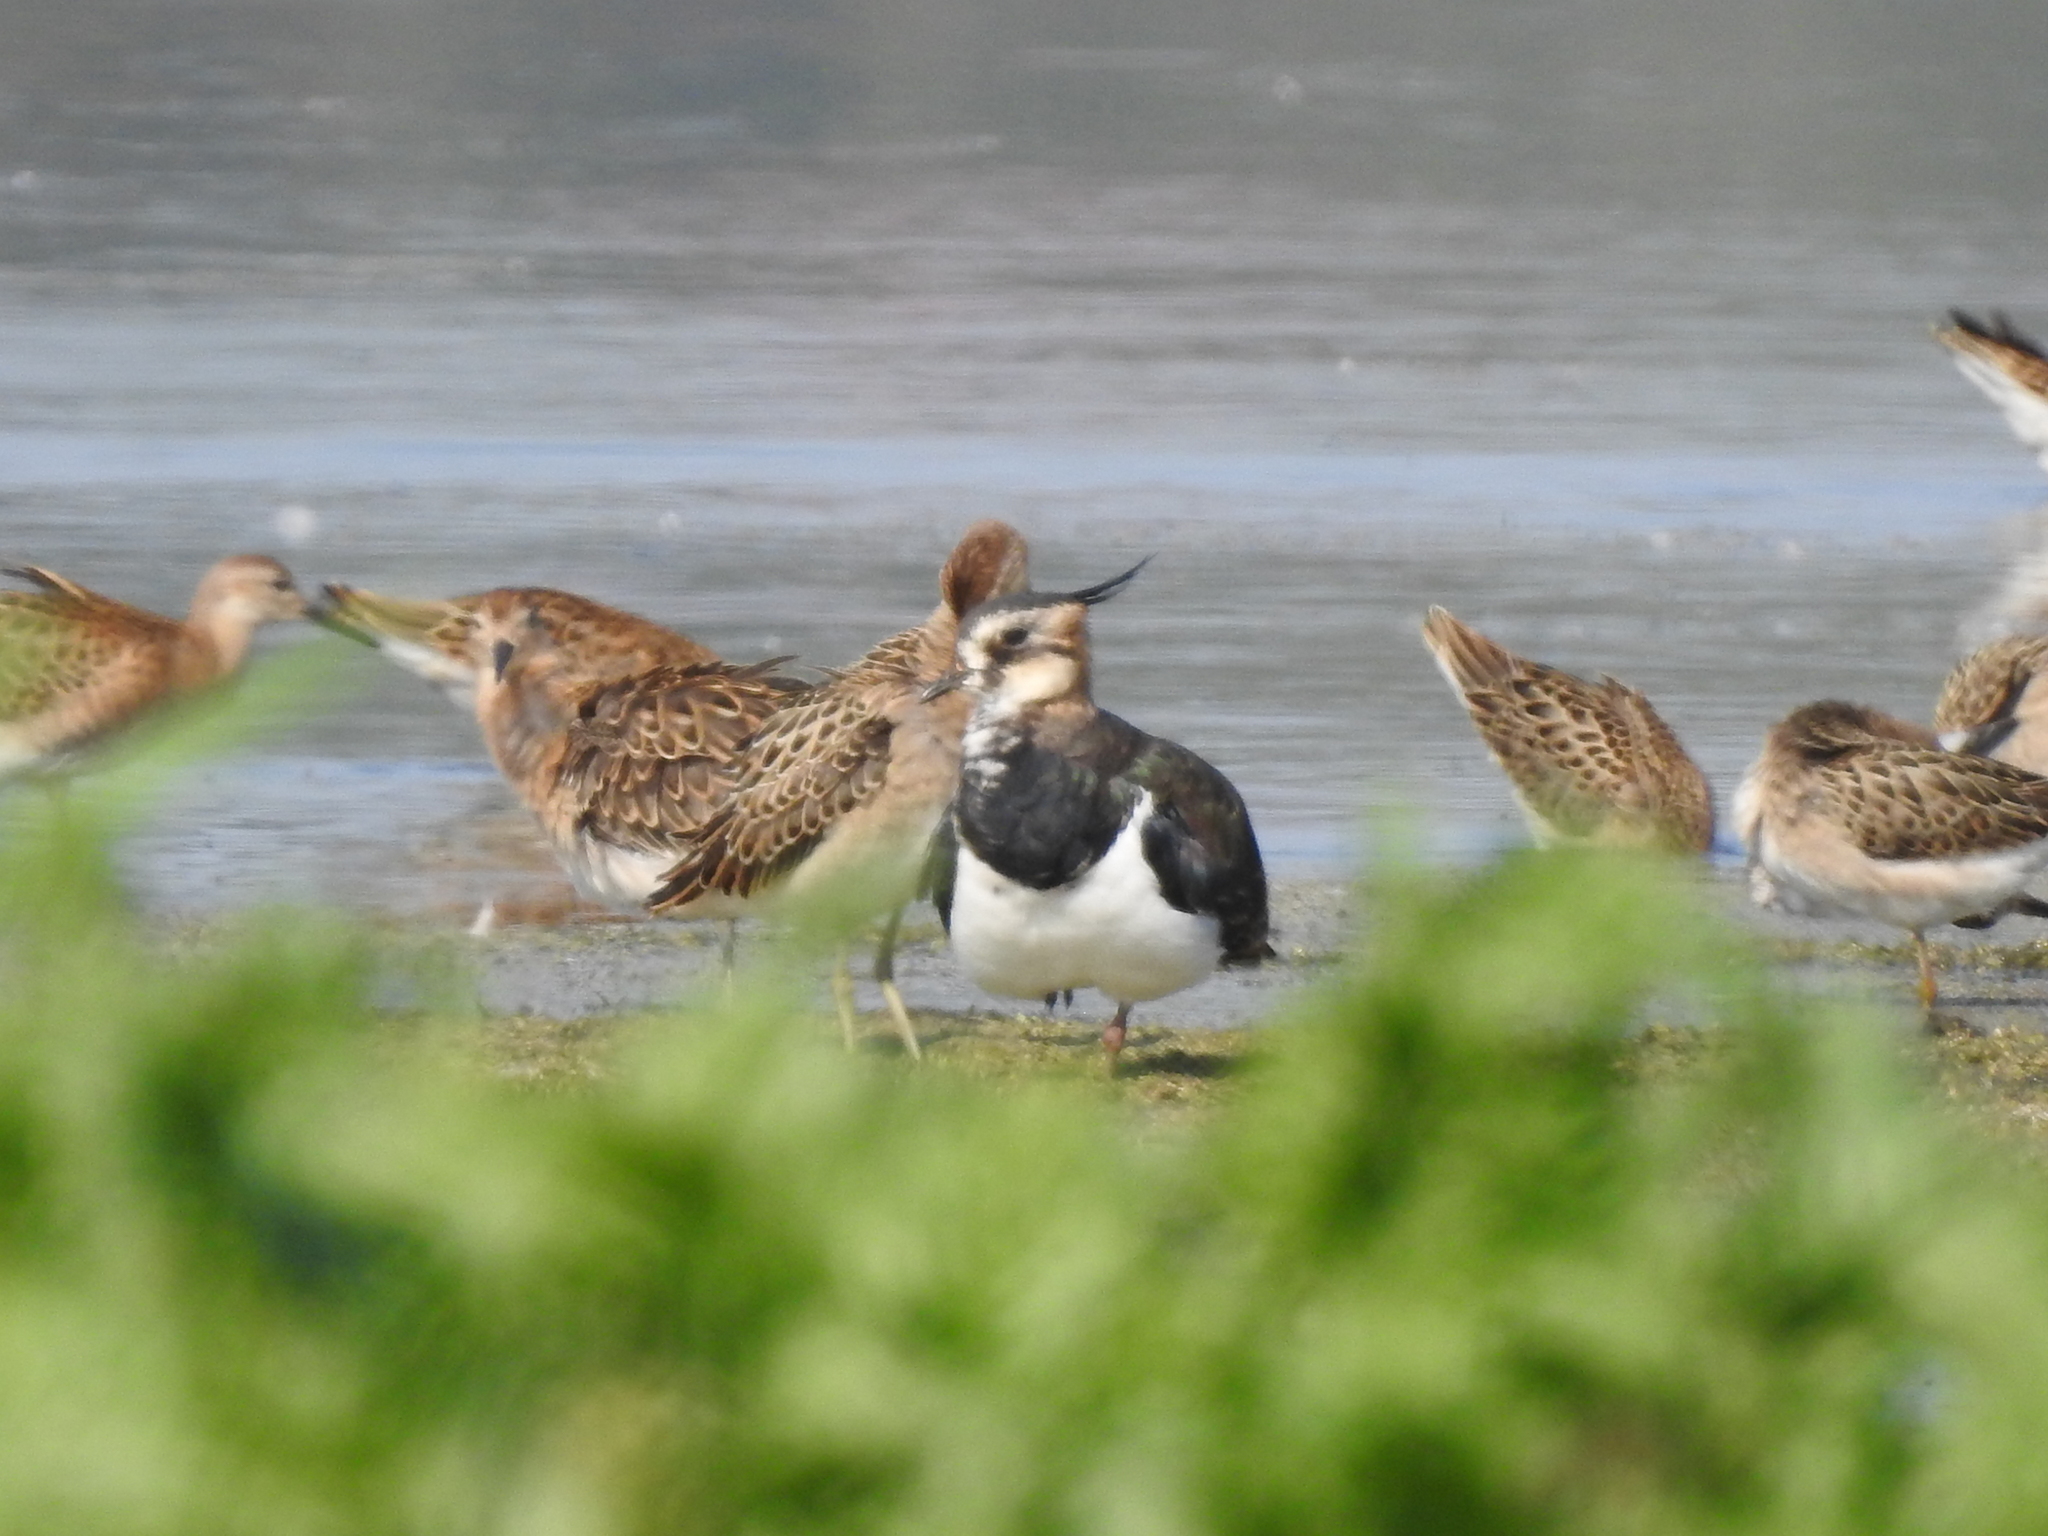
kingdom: Animalia
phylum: Chordata
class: Aves
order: Charadriiformes
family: Charadriidae
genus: Vanellus
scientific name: Vanellus vanellus
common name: Northern lapwing
